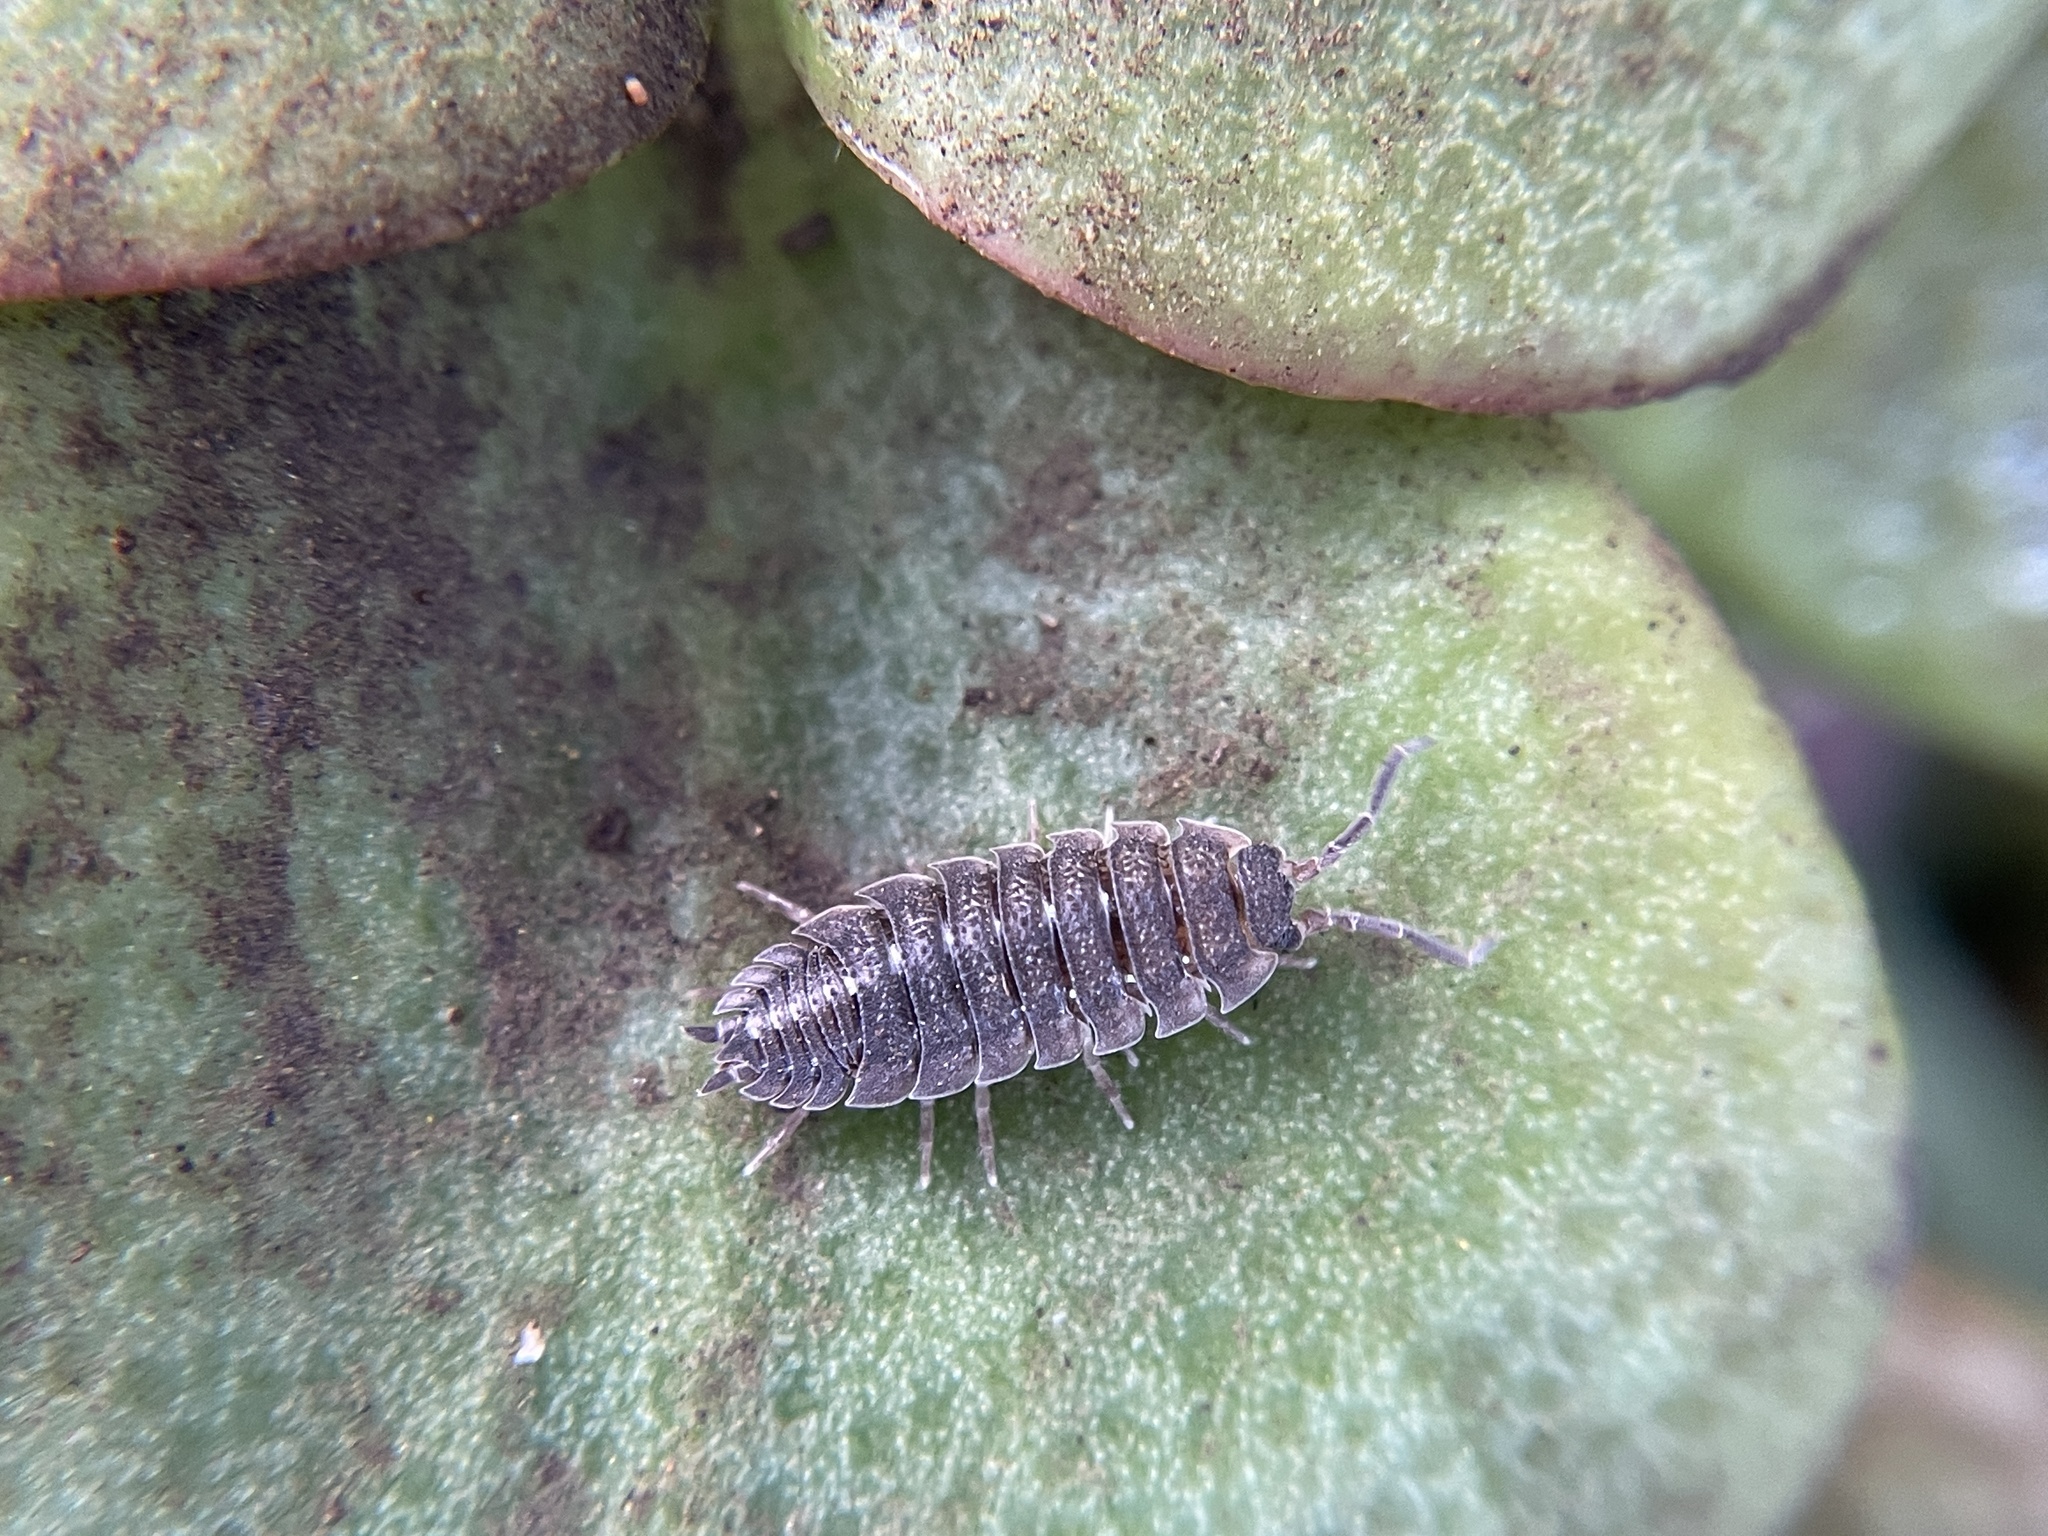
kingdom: Animalia
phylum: Arthropoda
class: Malacostraca
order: Isopoda
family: Porcellionidae
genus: Porcellio
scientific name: Porcellio scaber
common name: Common rough woodlouse
